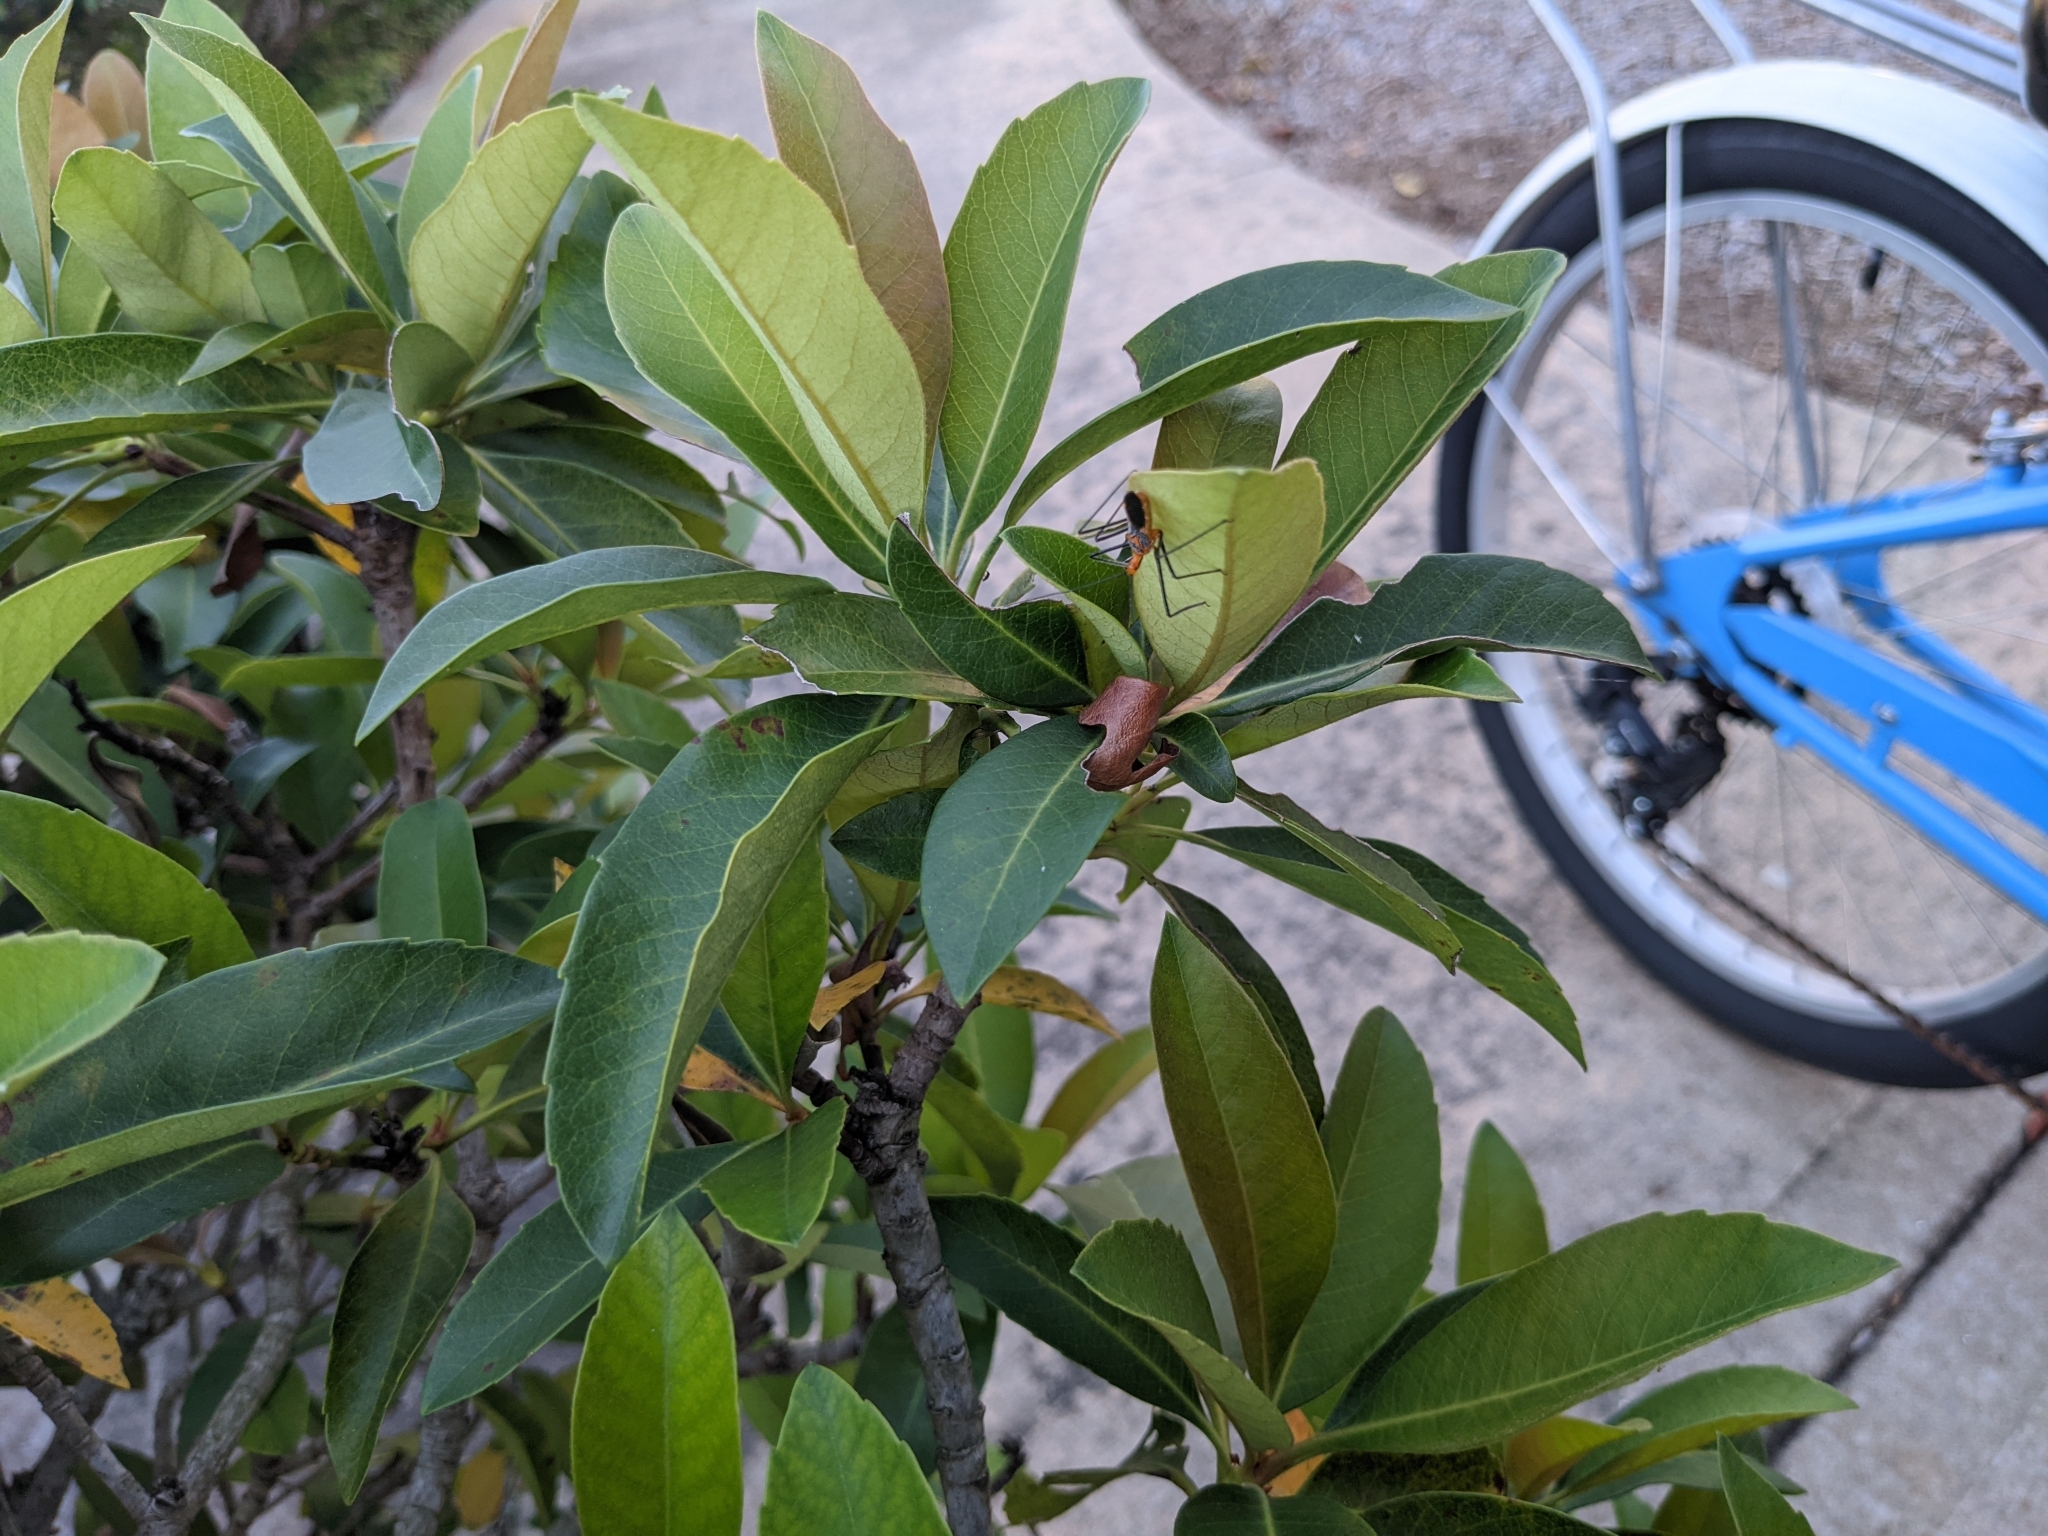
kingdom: Animalia
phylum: Arthropoda
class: Insecta
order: Hemiptera
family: Reduviidae
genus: Zelus
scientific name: Zelus longipes
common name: Milkweed assassin bug
